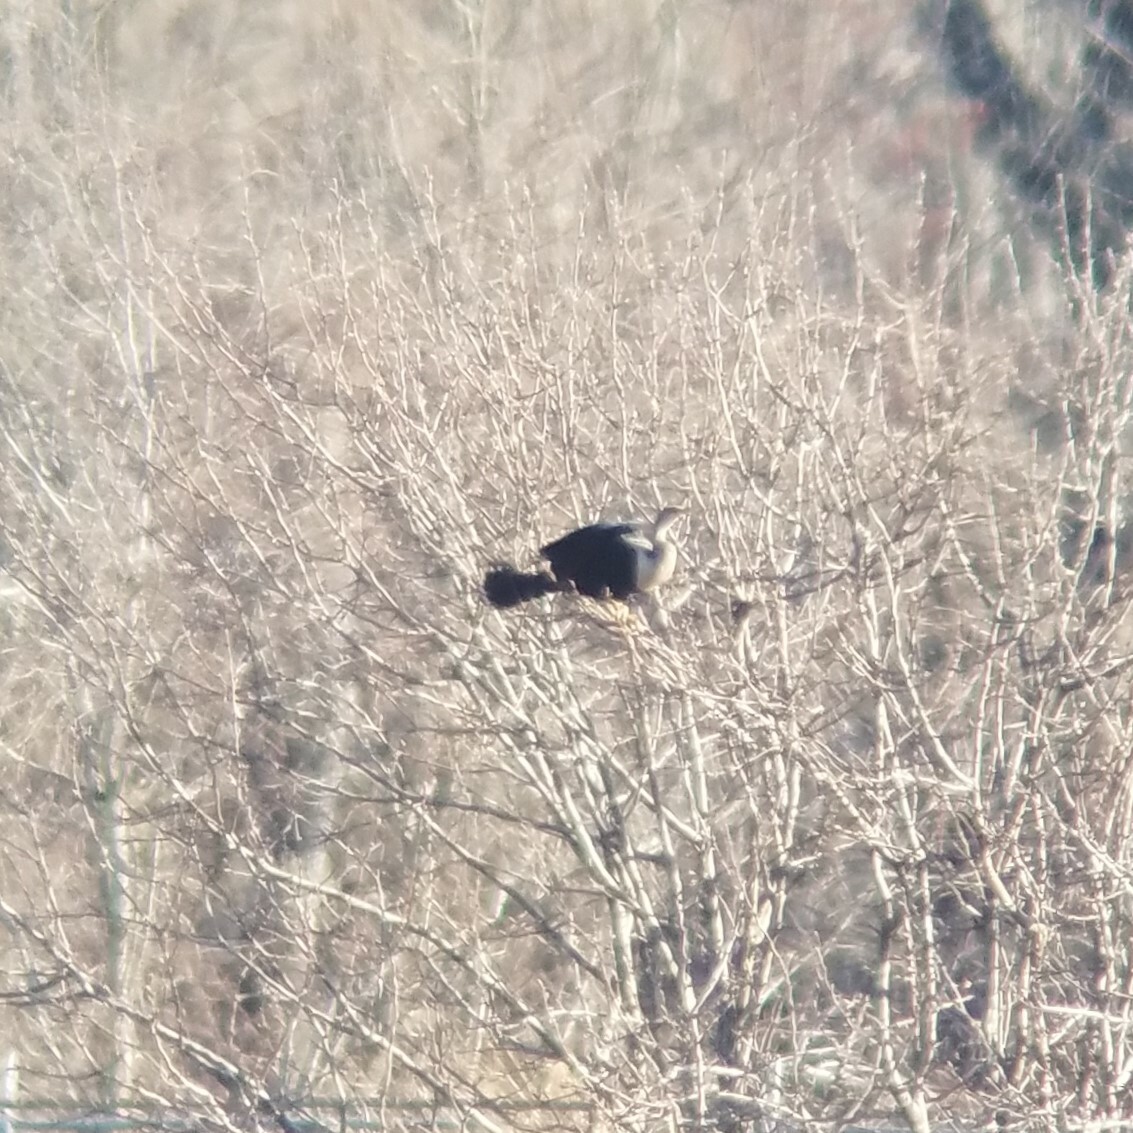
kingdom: Animalia
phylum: Chordata
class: Aves
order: Suliformes
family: Anhingidae
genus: Anhinga
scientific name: Anhinga anhinga
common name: Anhinga
